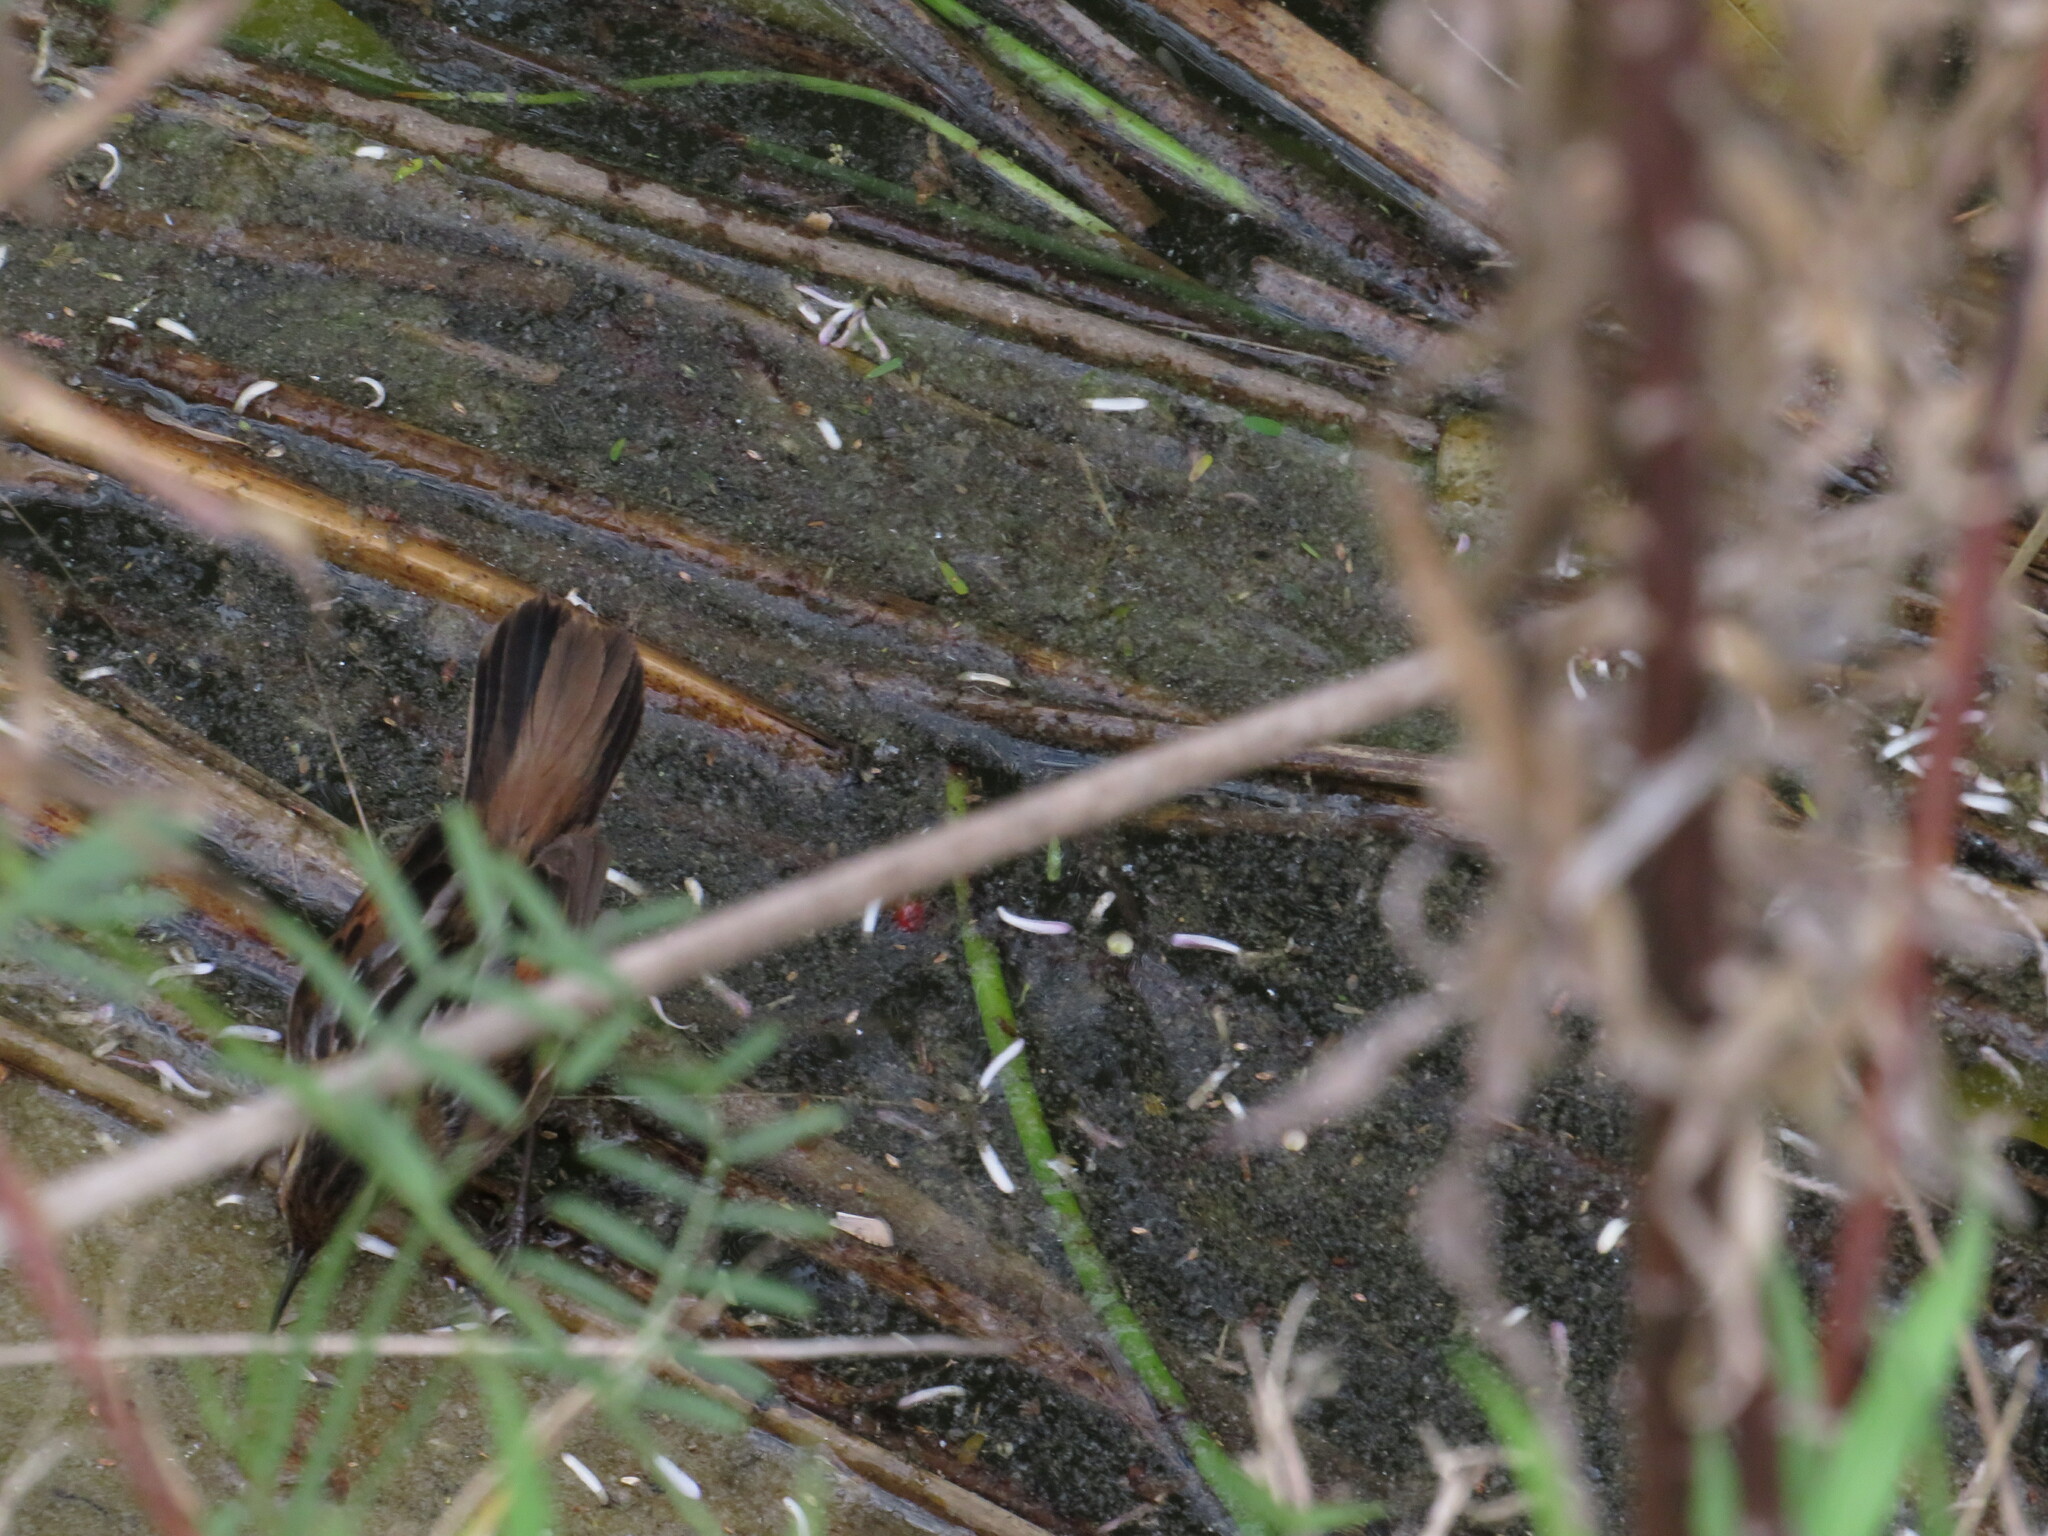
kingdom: Animalia
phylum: Chordata
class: Aves
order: Passeriformes
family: Furnariidae
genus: Phleocryptes
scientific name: Phleocryptes melanops
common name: Wren-like rushbird
